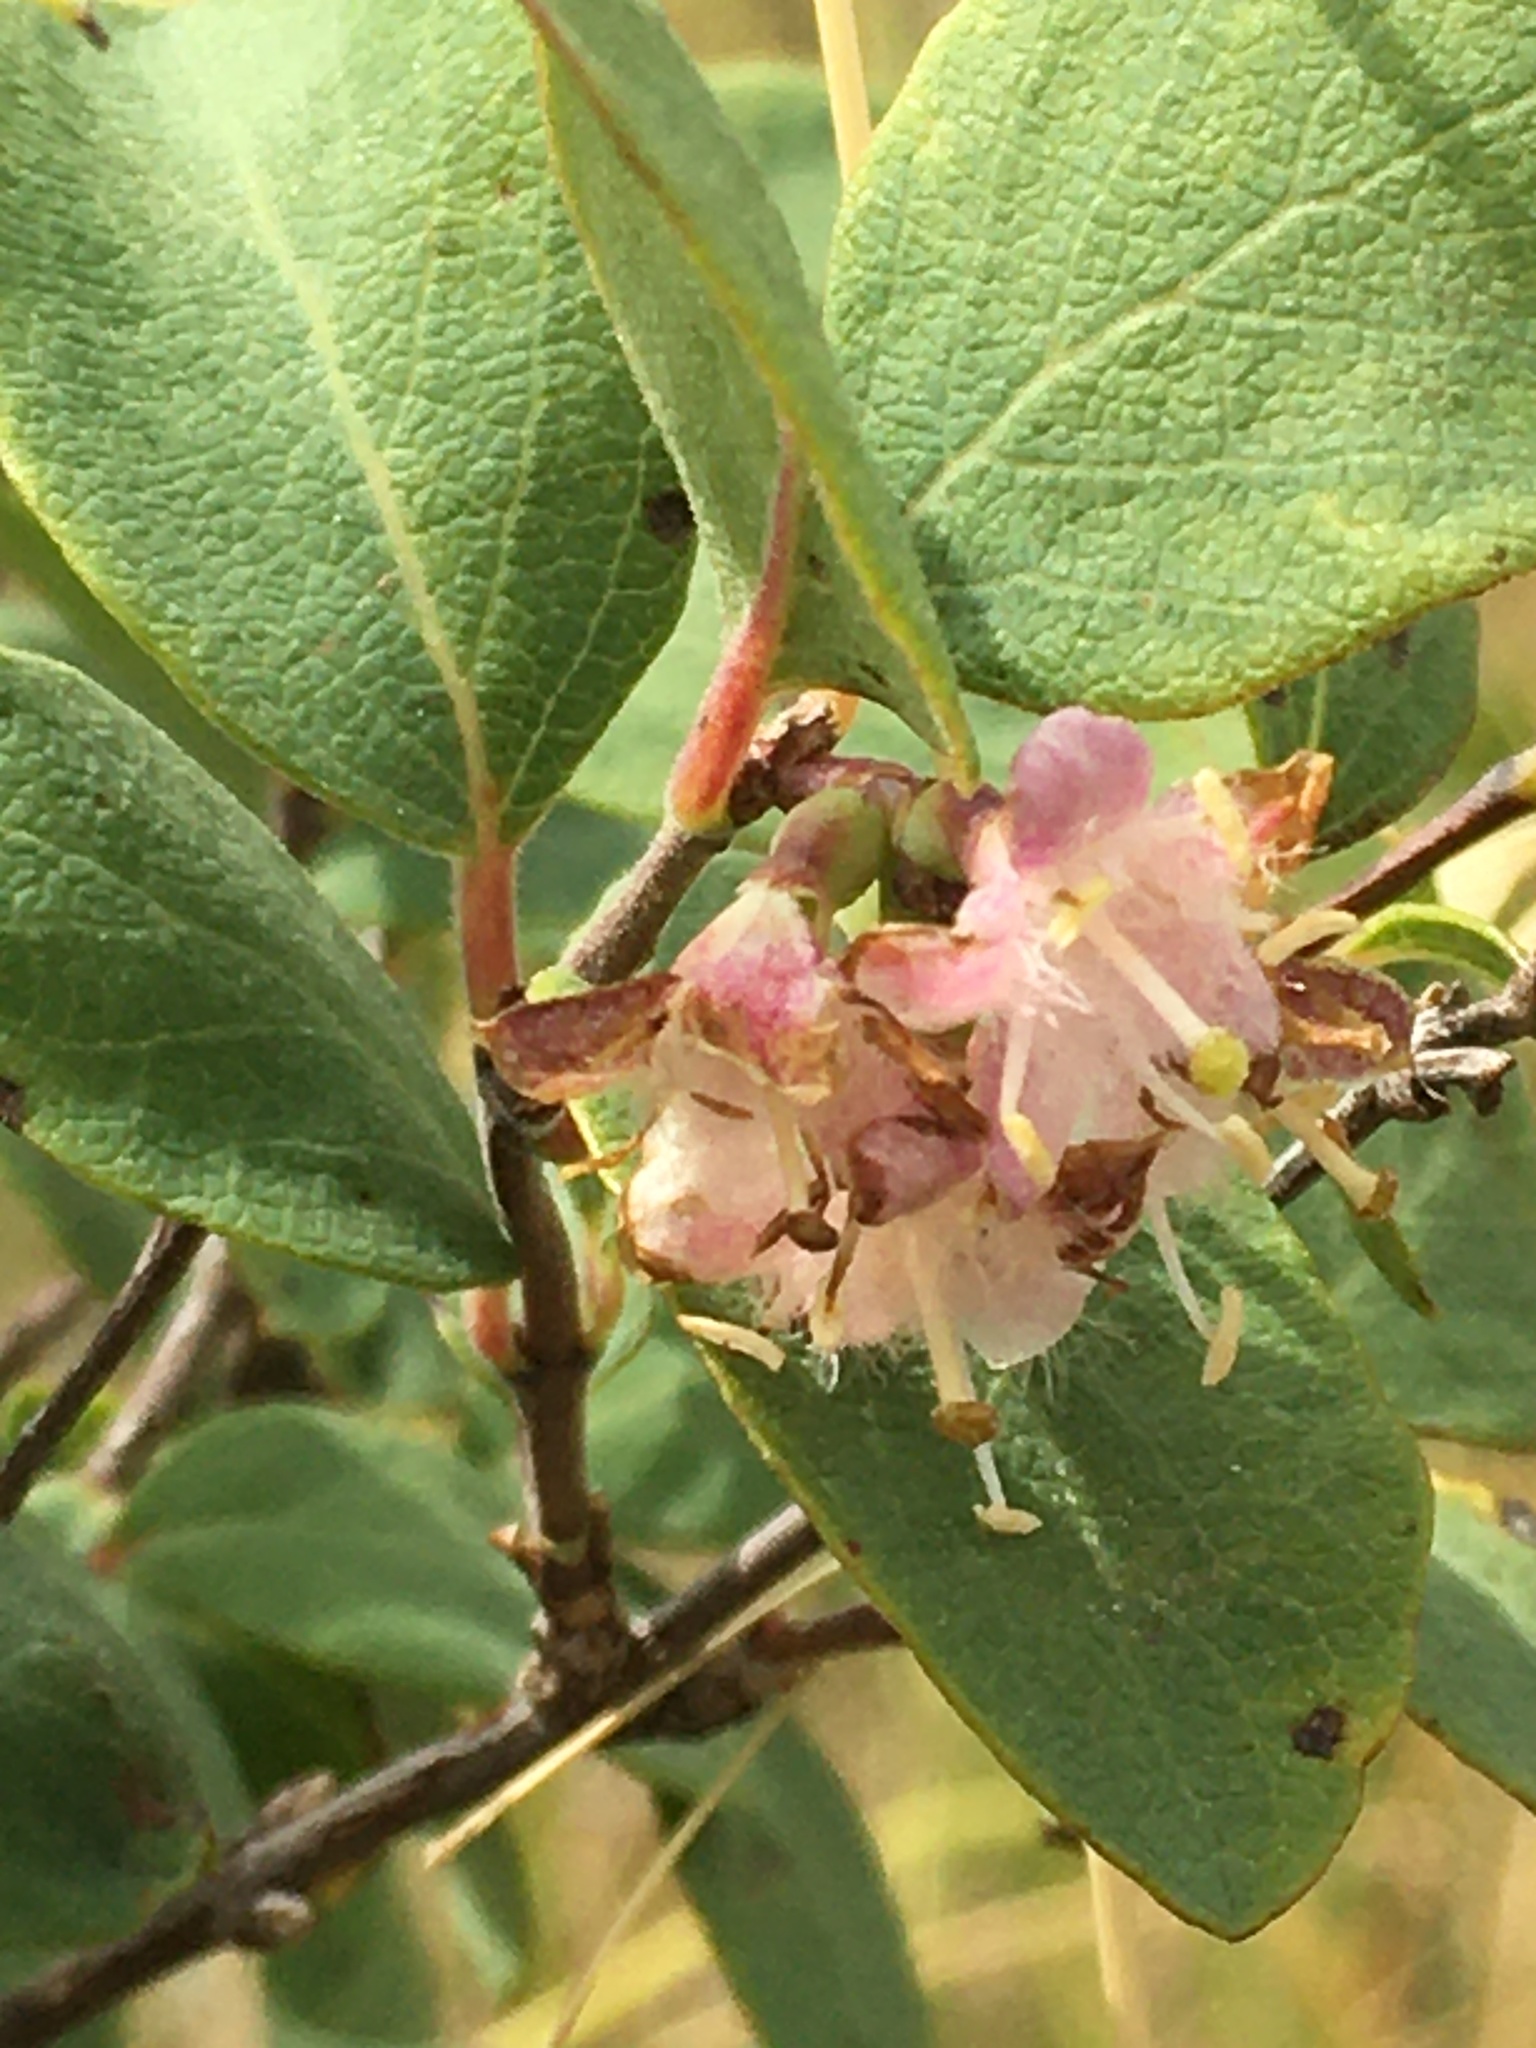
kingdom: Plantae
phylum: Tracheophyta
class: Magnoliopsida
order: Dipsacales
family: Caprifoliaceae
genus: Symphoricarpos
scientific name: Symphoricarpos occidentalis
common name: Wolfberry
